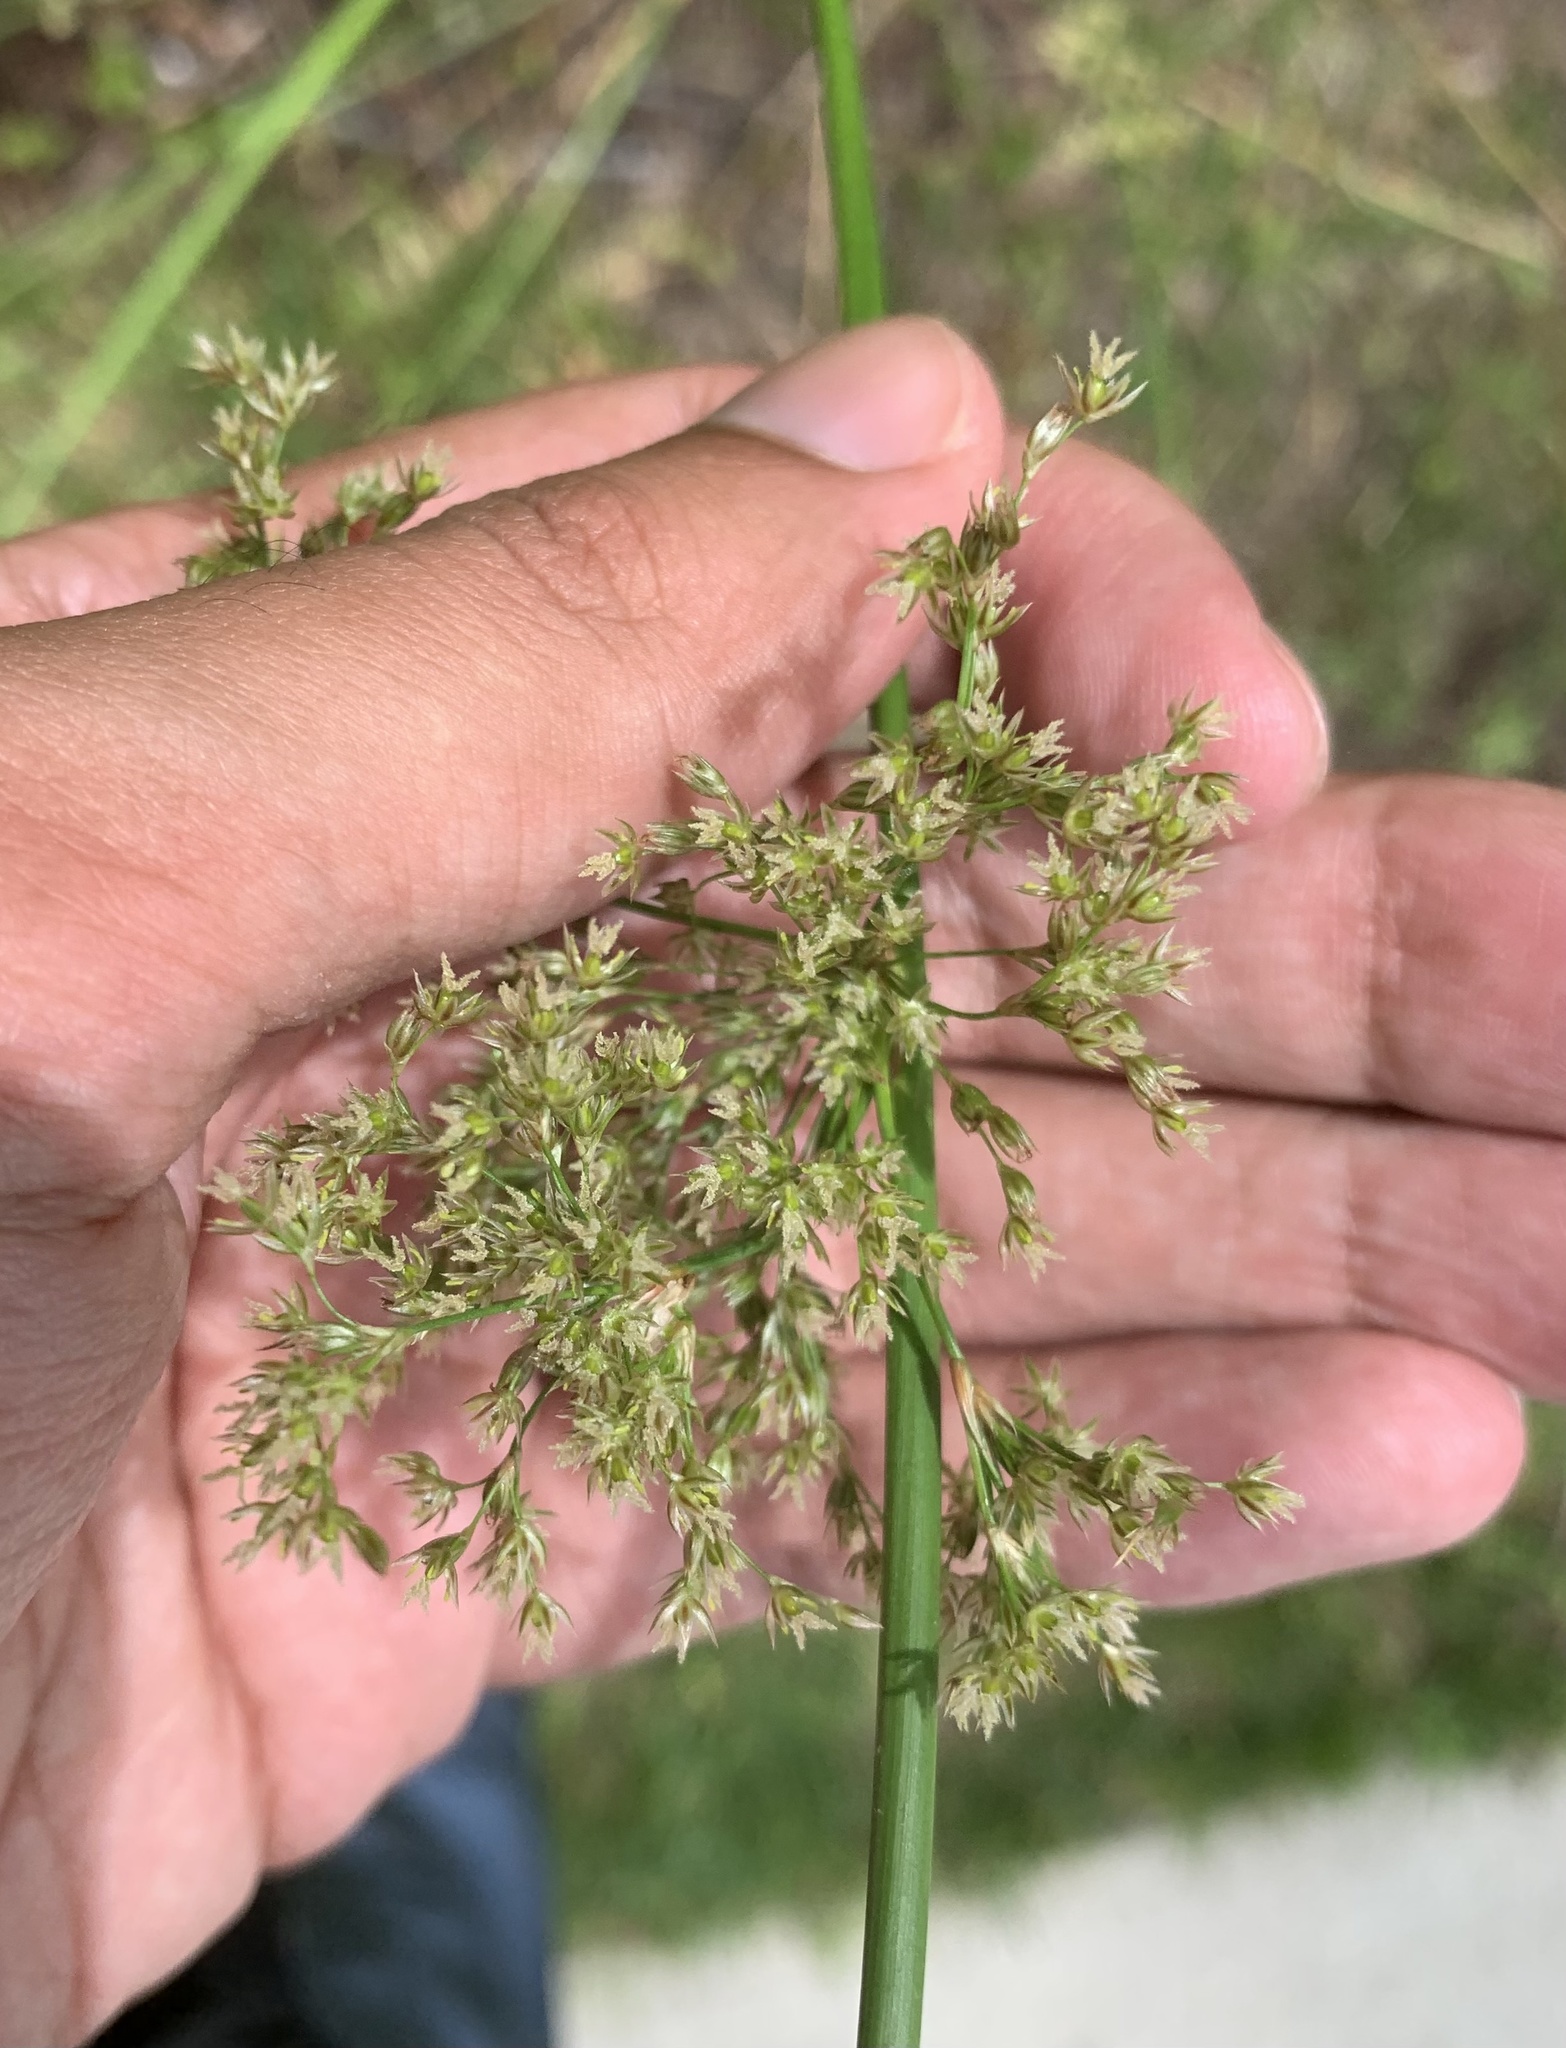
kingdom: Plantae
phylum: Tracheophyta
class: Liliopsida
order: Poales
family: Juncaceae
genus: Juncus
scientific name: Juncus effusus
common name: Soft rush
